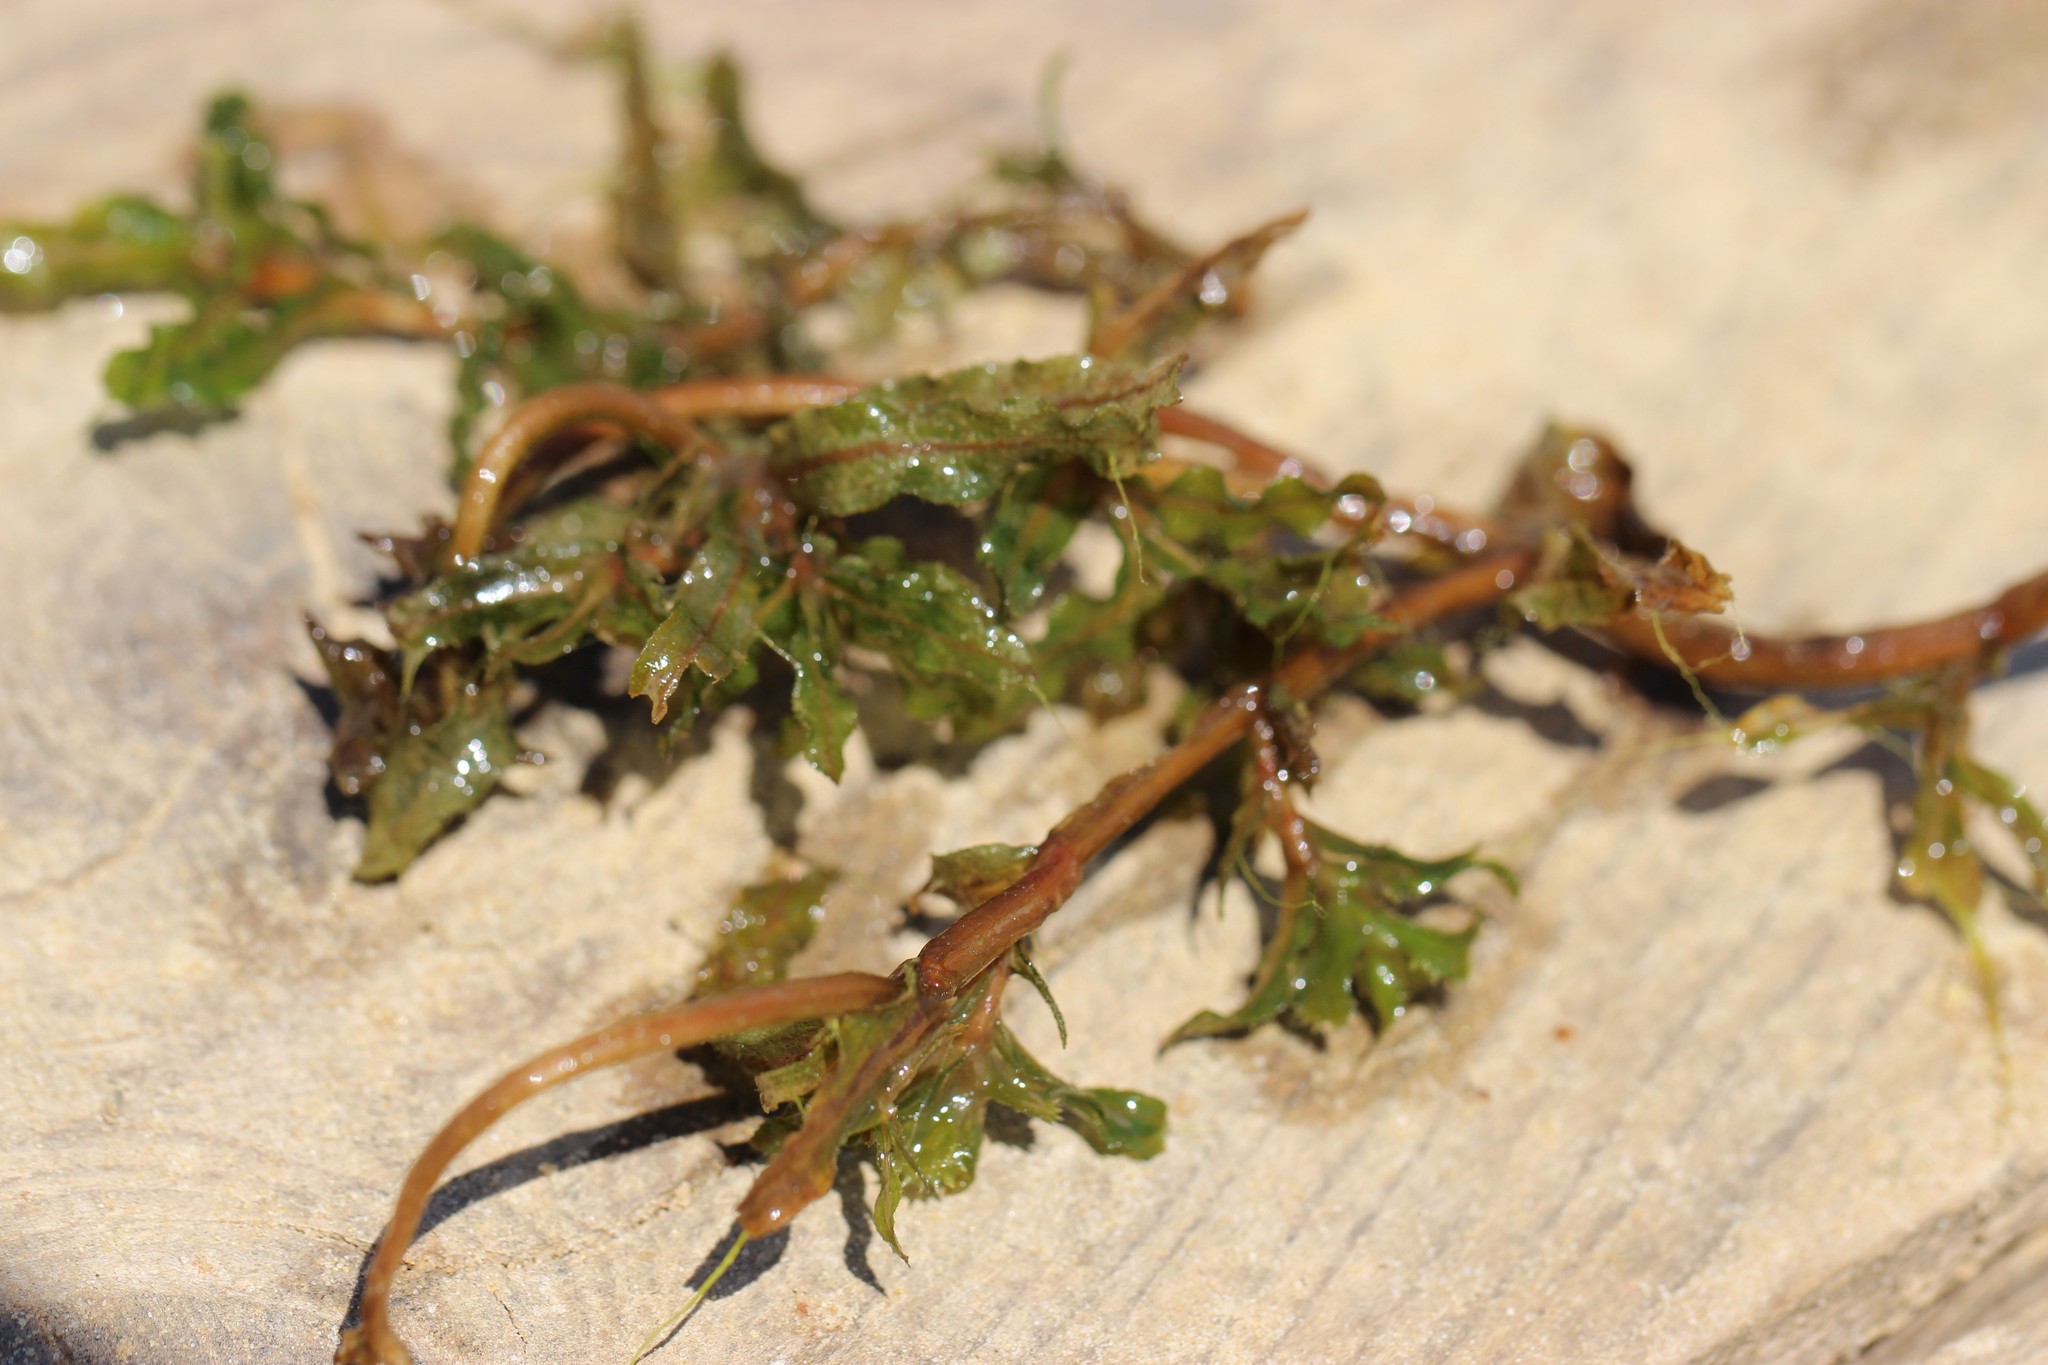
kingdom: Plantae
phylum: Tracheophyta
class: Liliopsida
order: Alismatales
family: Potamogetonaceae
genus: Potamogeton
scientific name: Potamogeton crispus
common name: Curled pondweed
